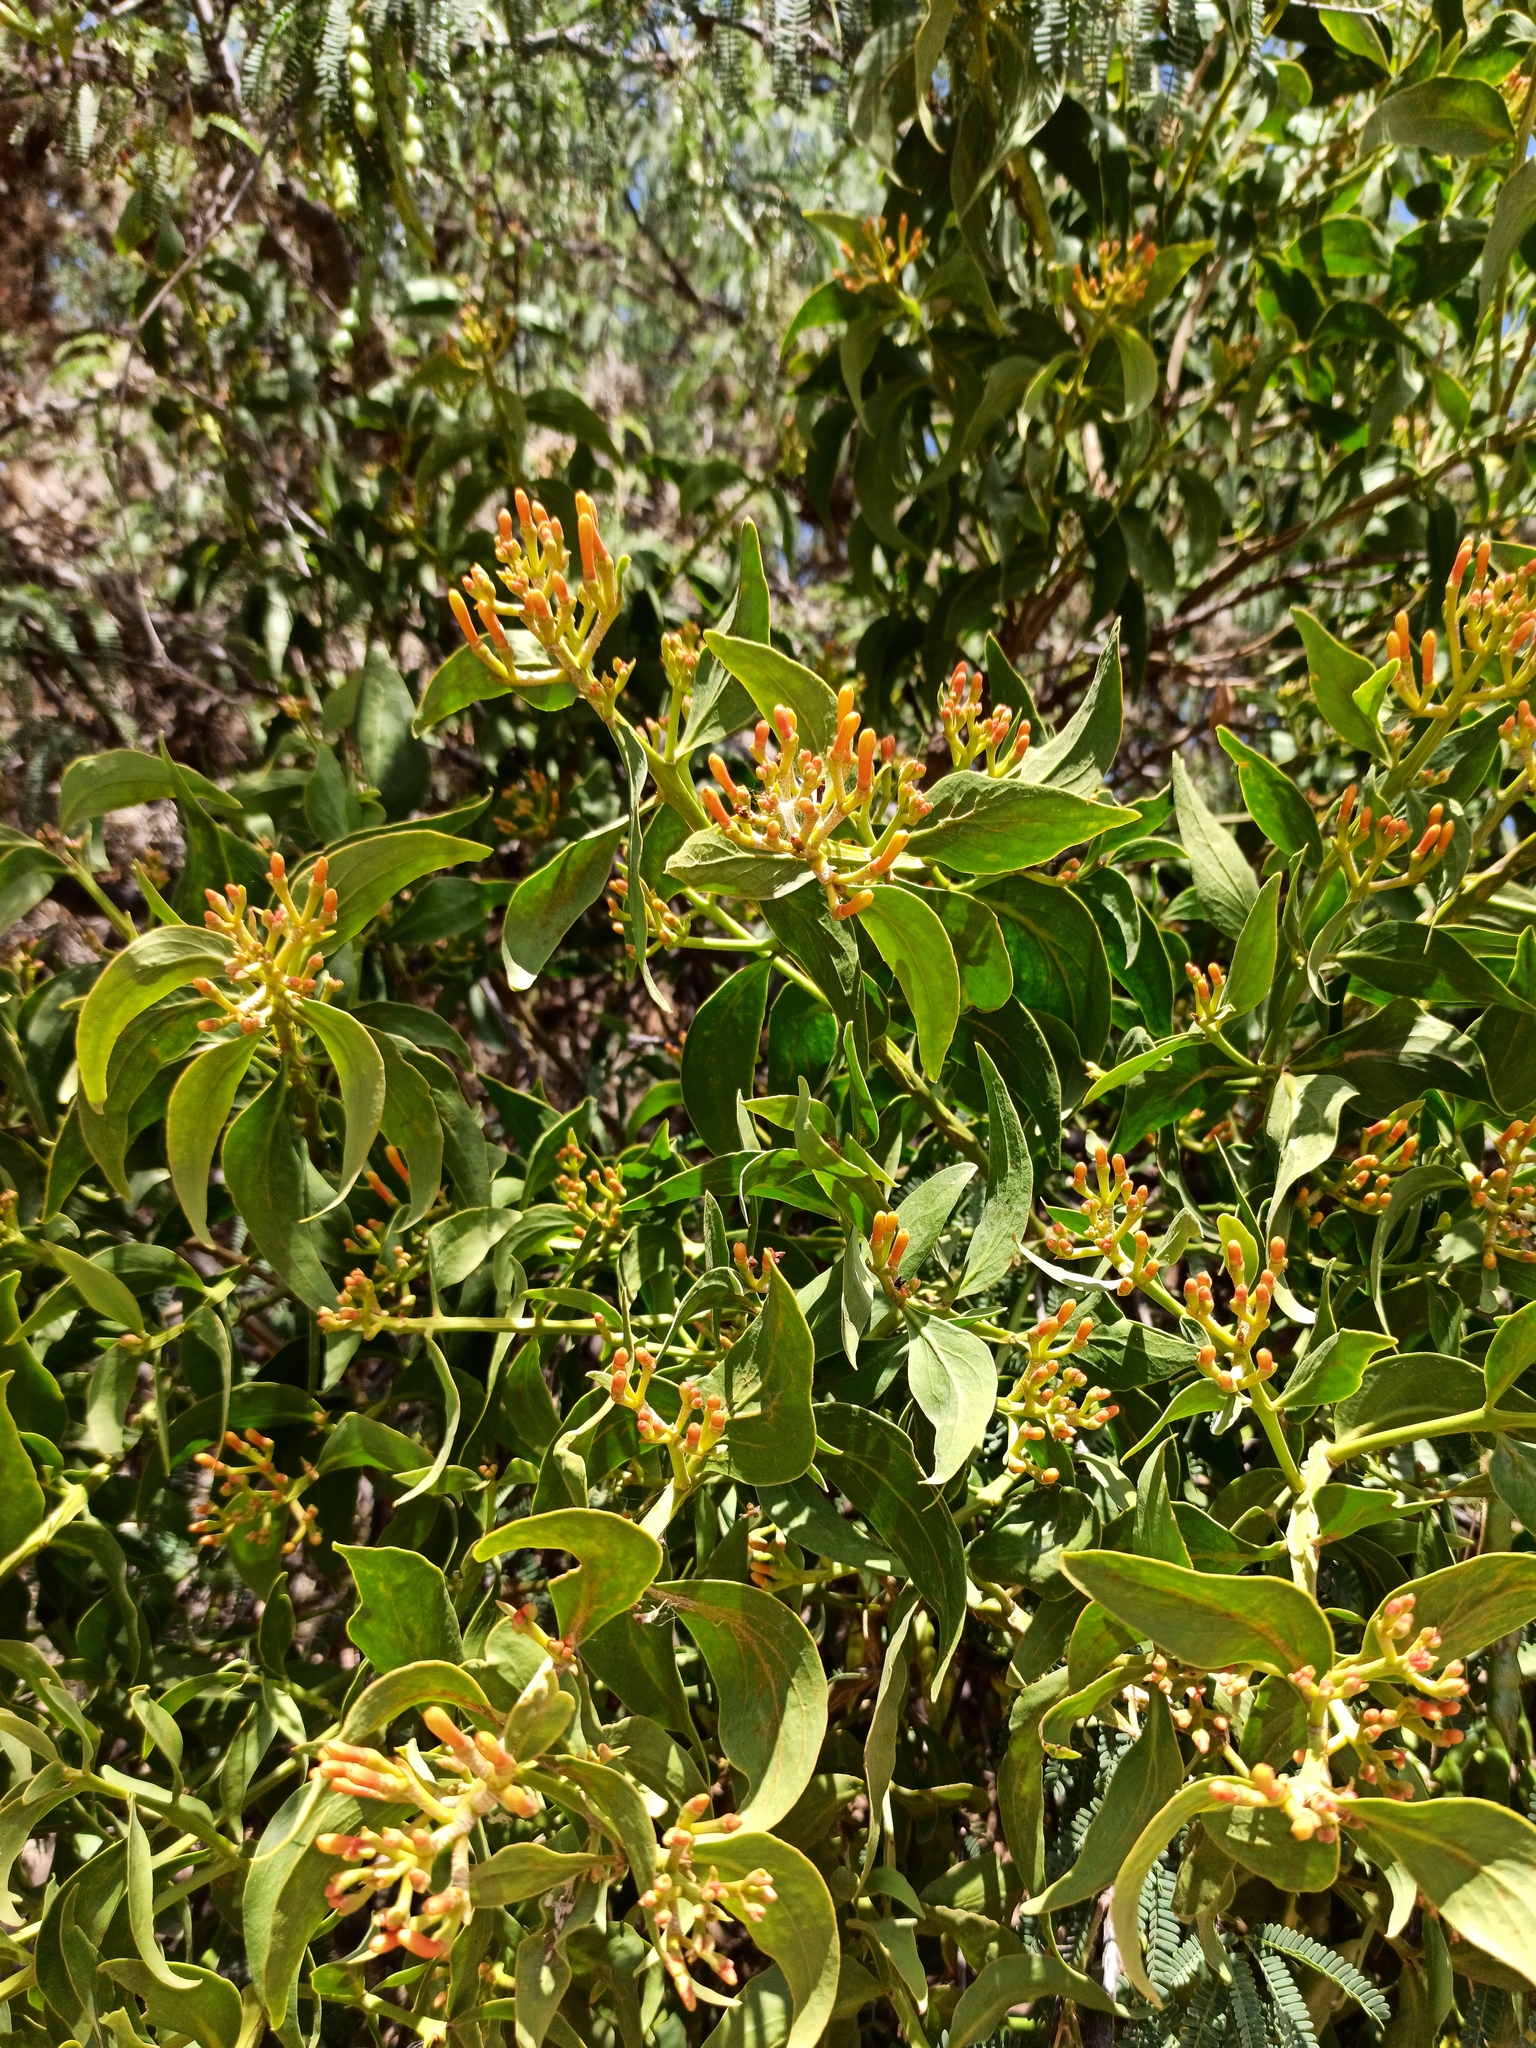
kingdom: Plantae
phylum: Tracheophyta
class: Magnoliopsida
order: Santalales
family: Loranthaceae
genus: Psittacanthus
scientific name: Psittacanthus calyculatus
